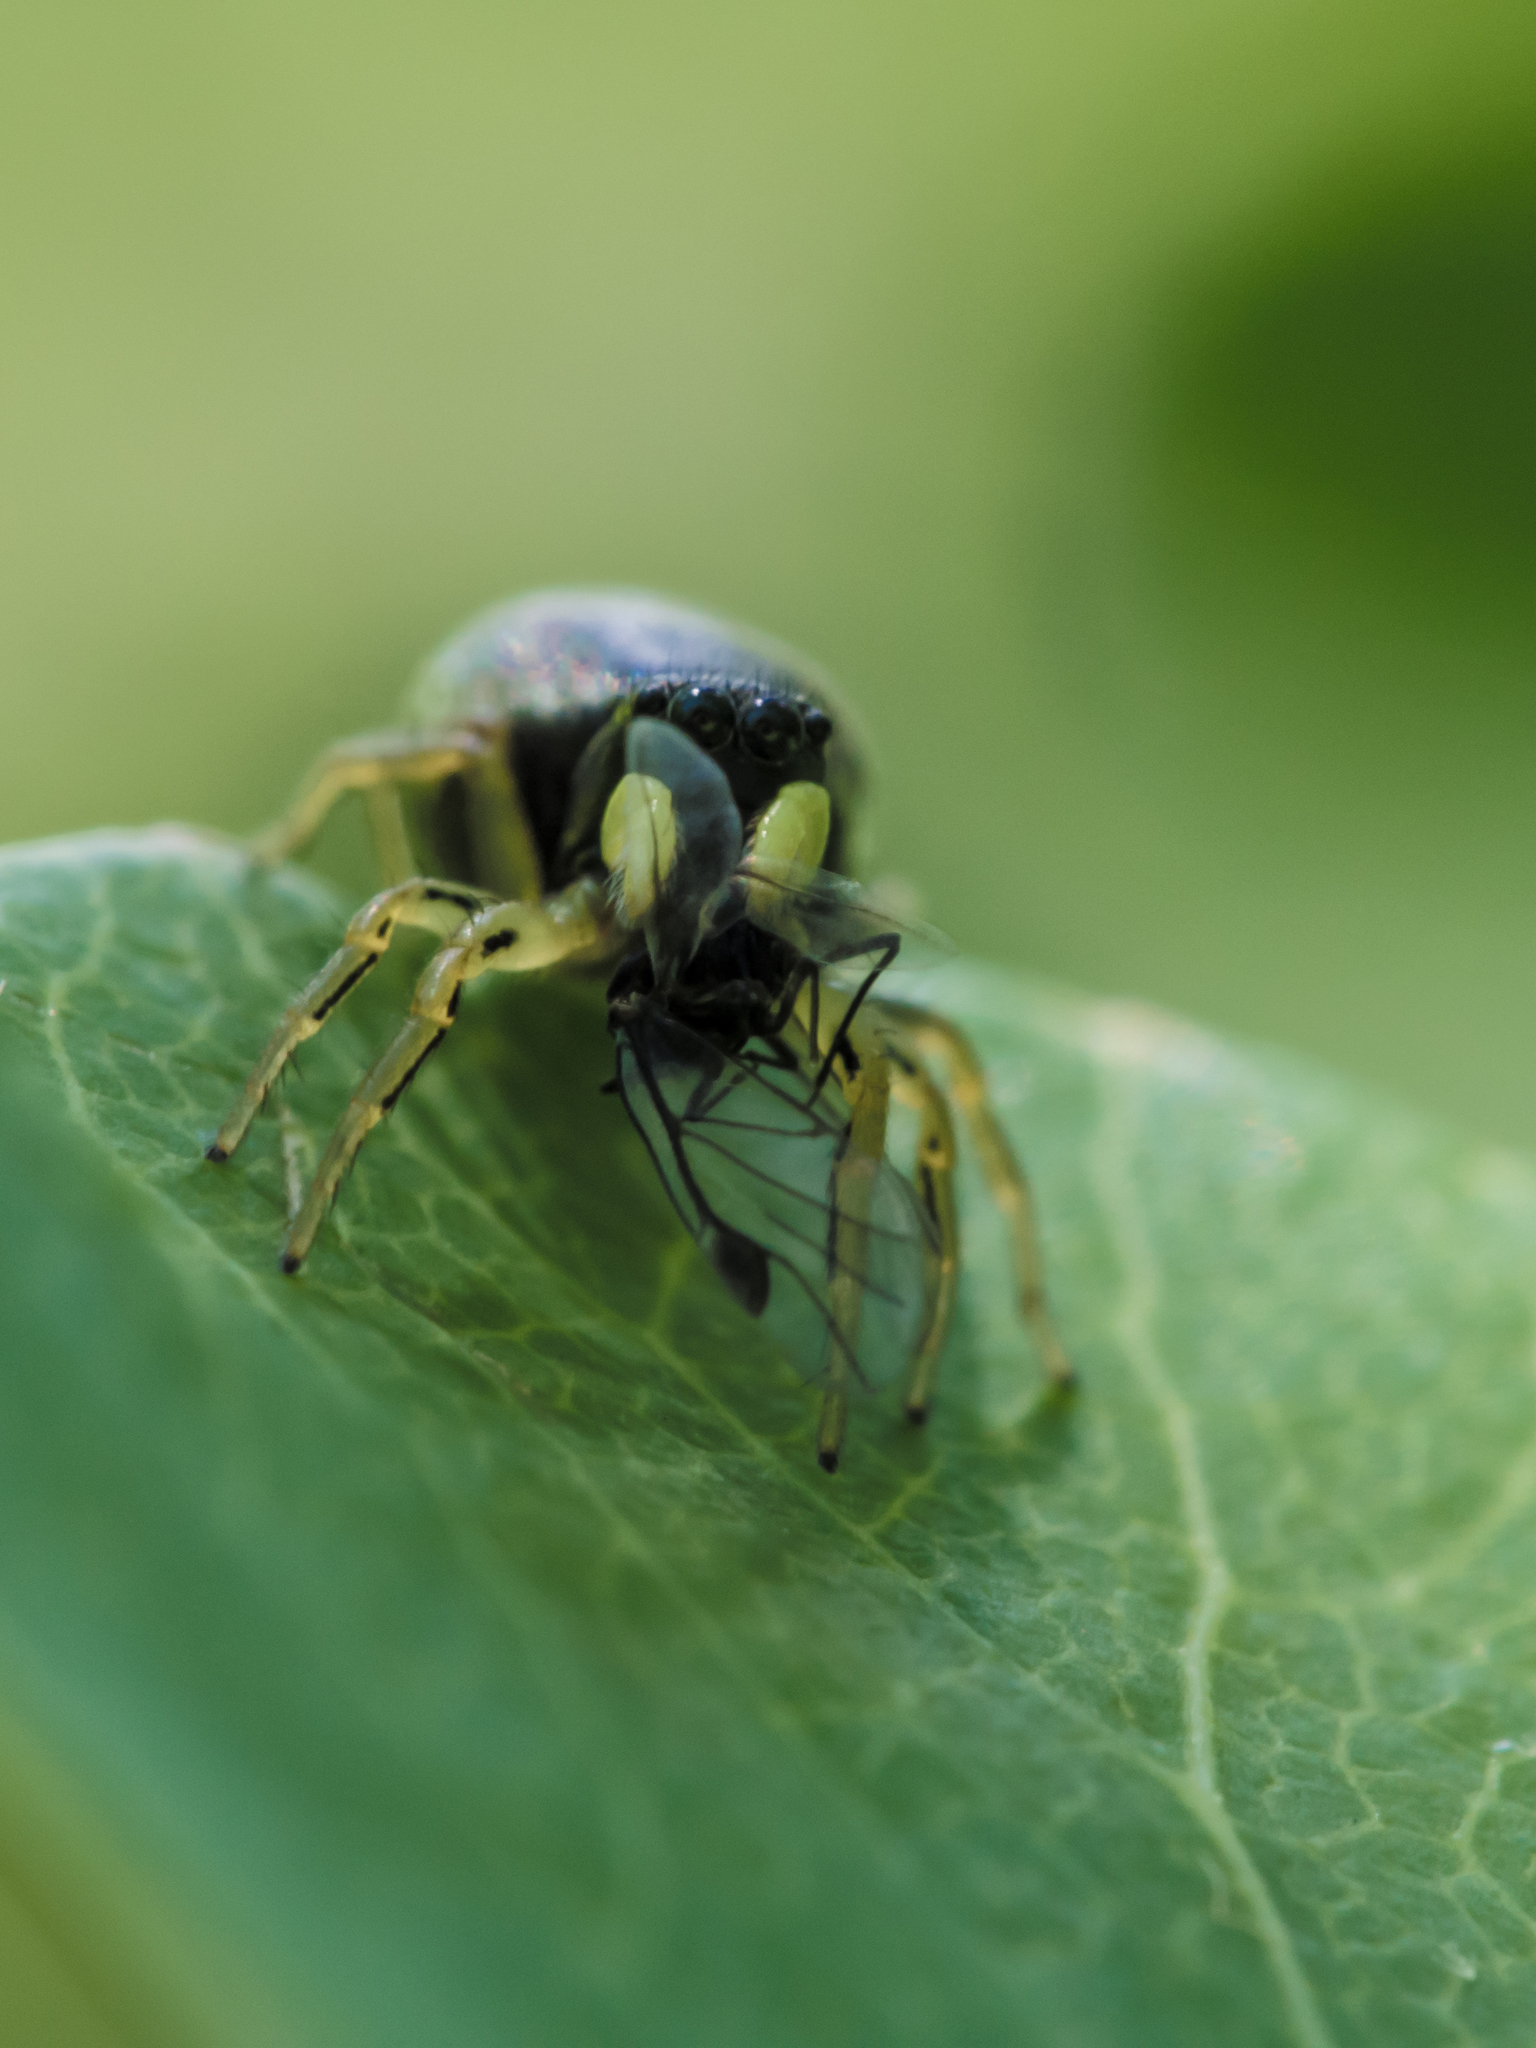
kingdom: Animalia
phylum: Arthropoda
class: Arachnida
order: Araneae
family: Salticidae
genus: Heliophanus
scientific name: Heliophanus cupreus
